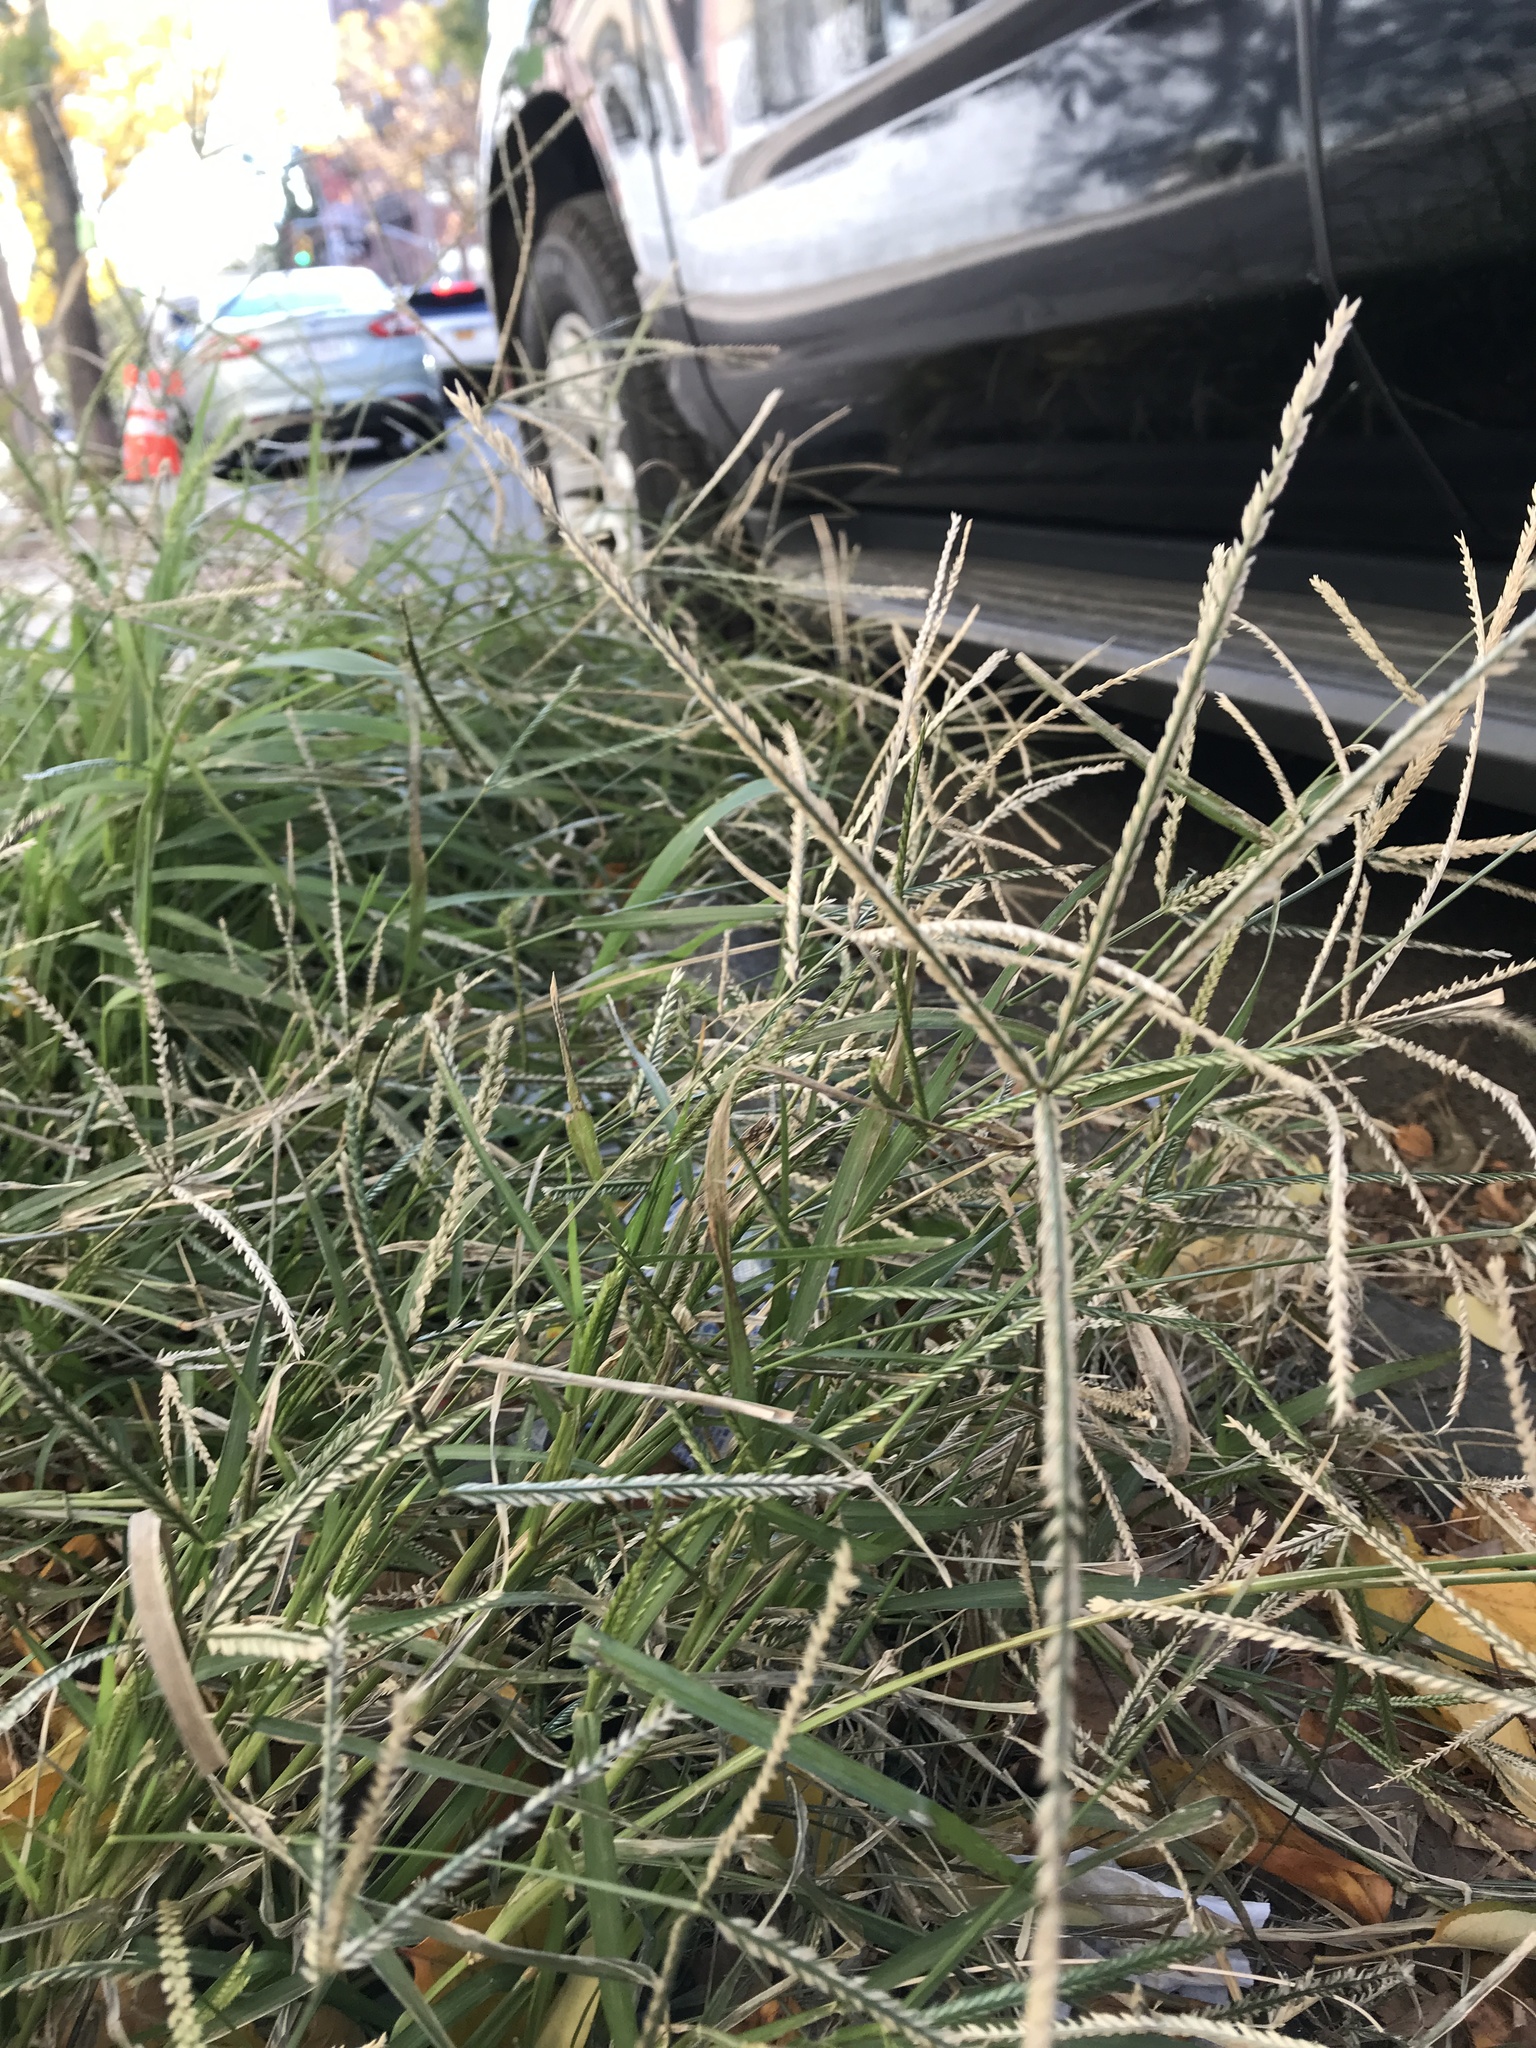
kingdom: Plantae
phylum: Tracheophyta
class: Liliopsida
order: Poales
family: Poaceae
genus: Eleusine
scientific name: Eleusine indica
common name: Yard-grass
